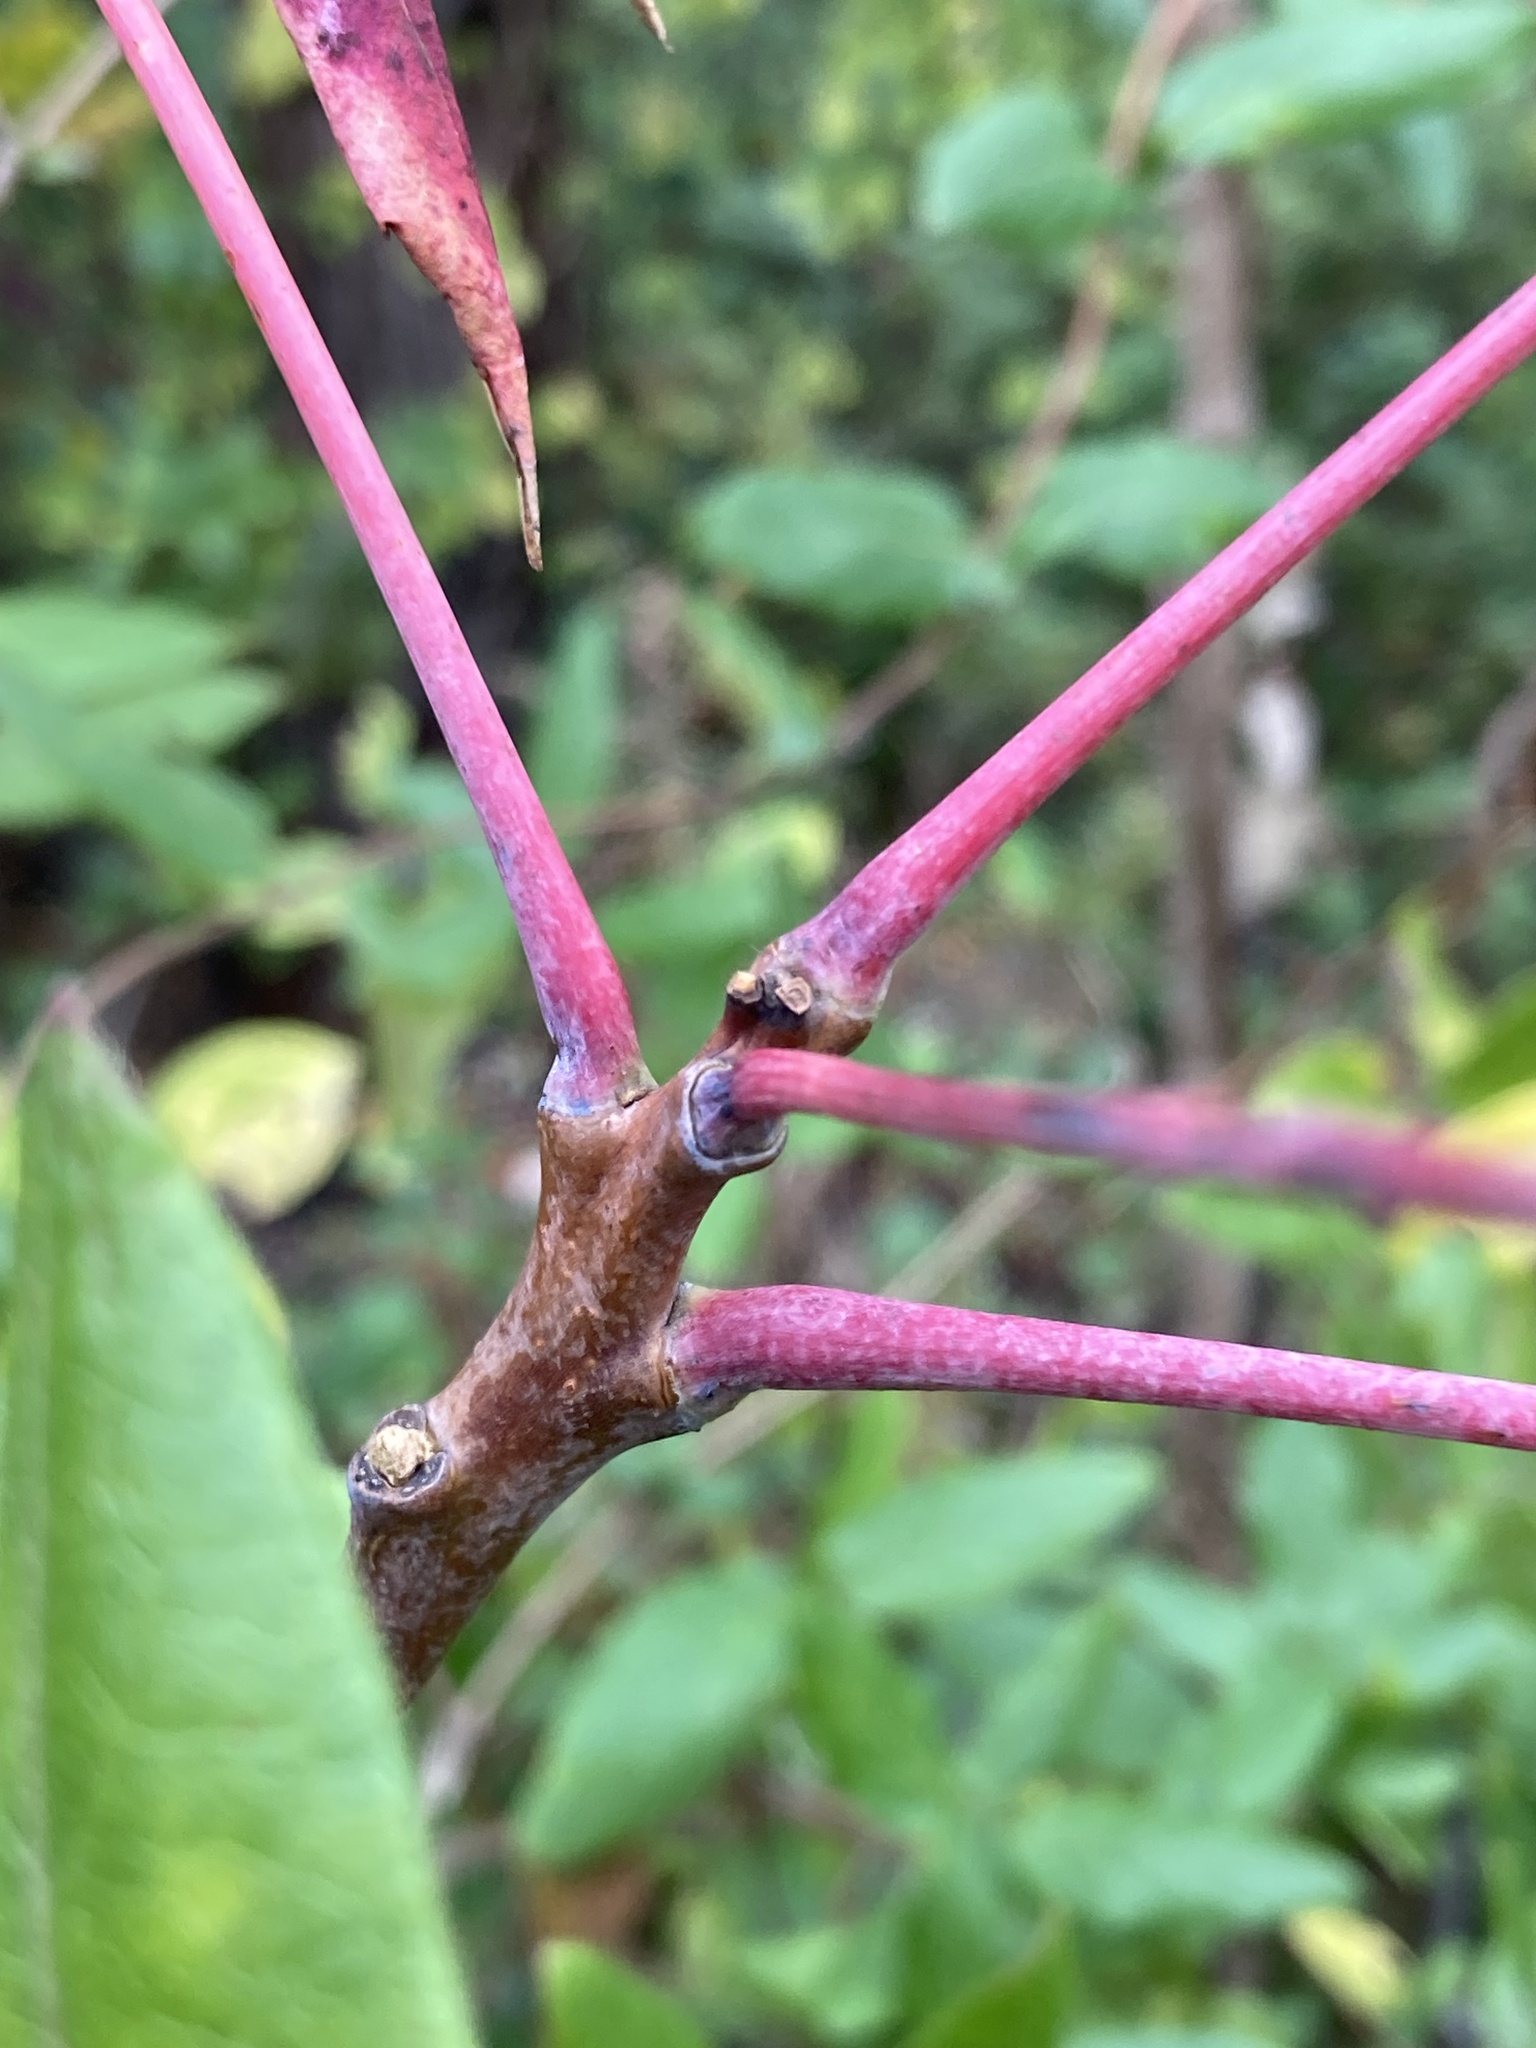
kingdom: Plantae
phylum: Tracheophyta
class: Magnoliopsida
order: Sapindales
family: Anacardiaceae
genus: Rhus
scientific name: Rhus glabra
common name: Scarlet sumac
